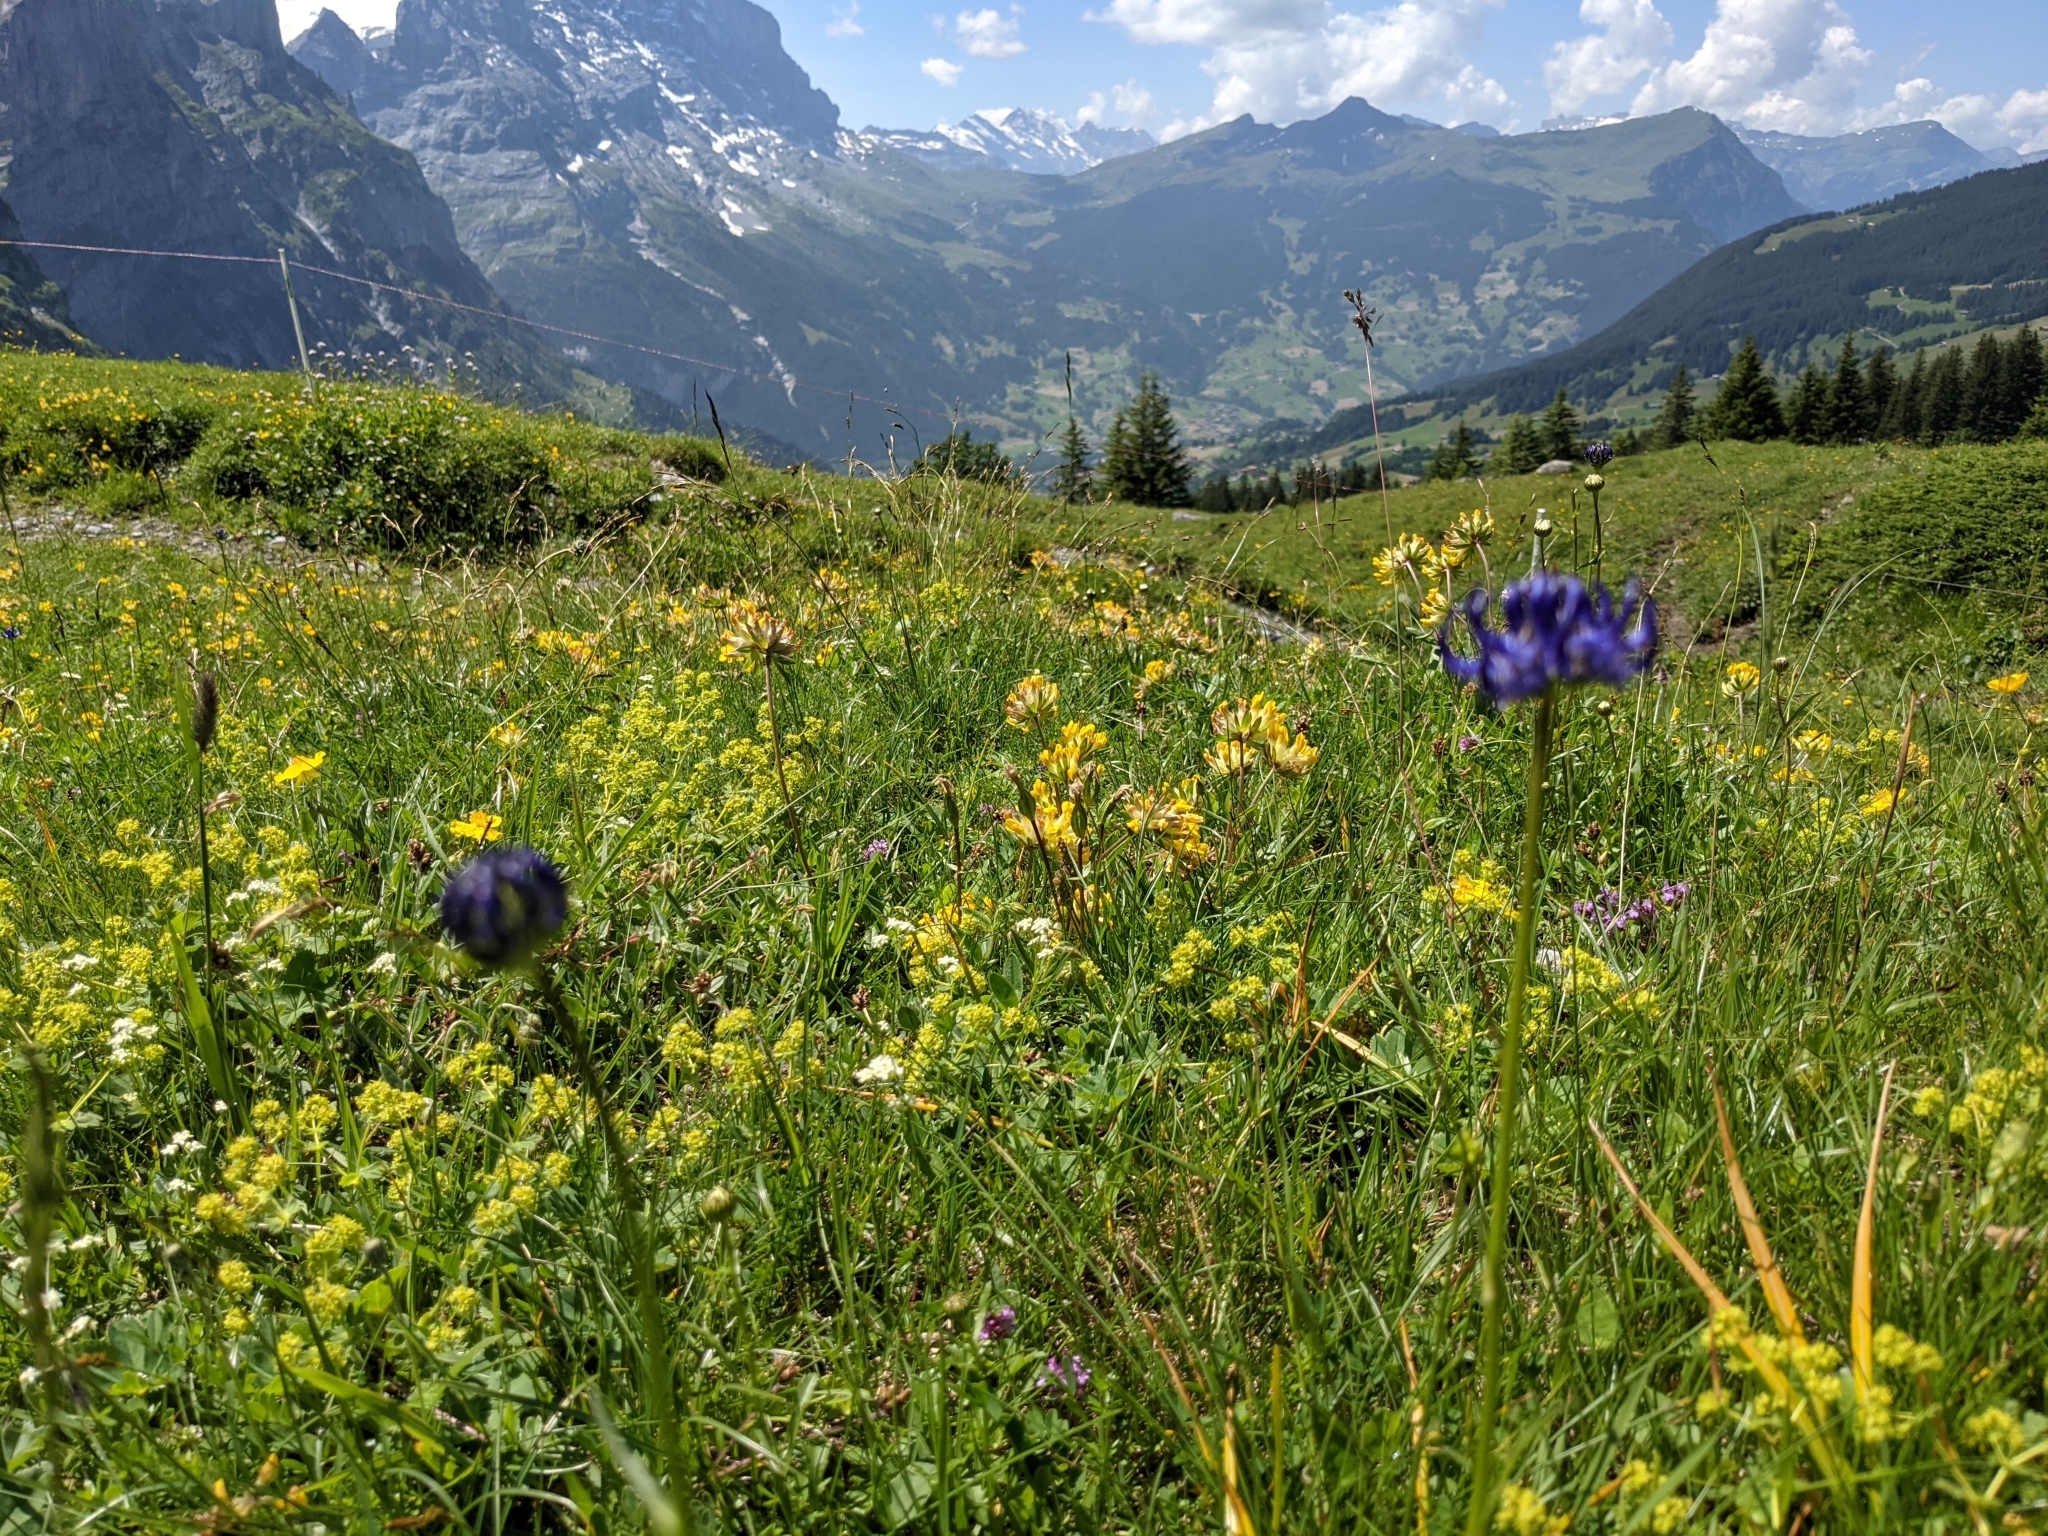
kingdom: Plantae
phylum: Tracheophyta
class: Magnoliopsida
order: Asterales
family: Campanulaceae
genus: Phyteuma
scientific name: Phyteuma orbiculare
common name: Round-headed rampion
